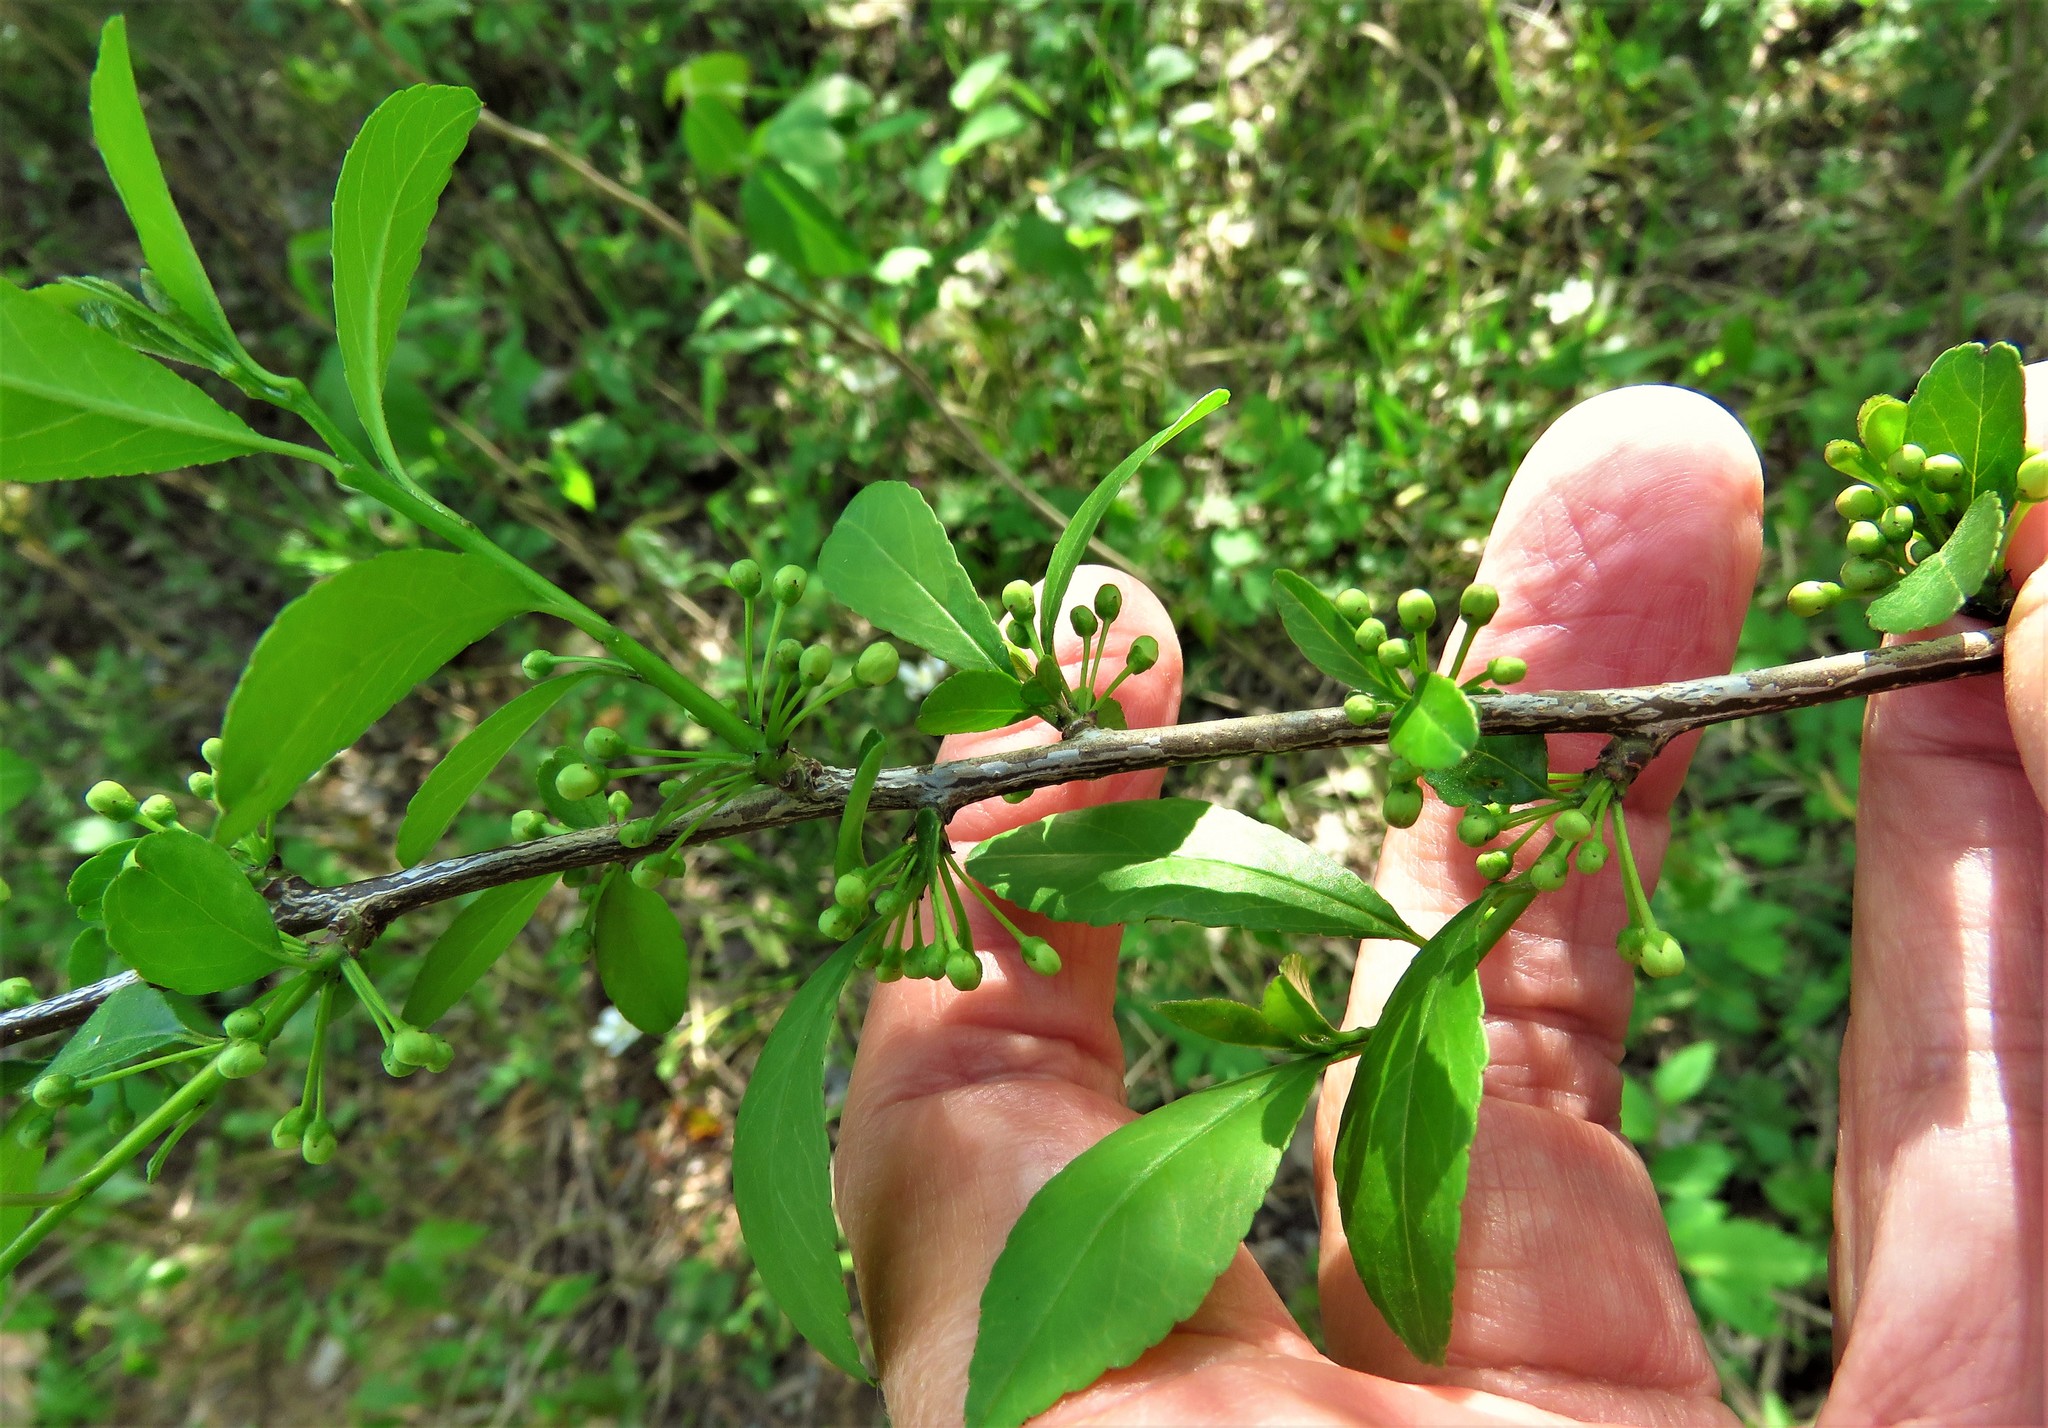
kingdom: Plantae
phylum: Tracheophyta
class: Magnoliopsida
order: Aquifoliales
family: Aquifoliaceae
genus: Ilex
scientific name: Ilex decidua
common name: Possum-haw
